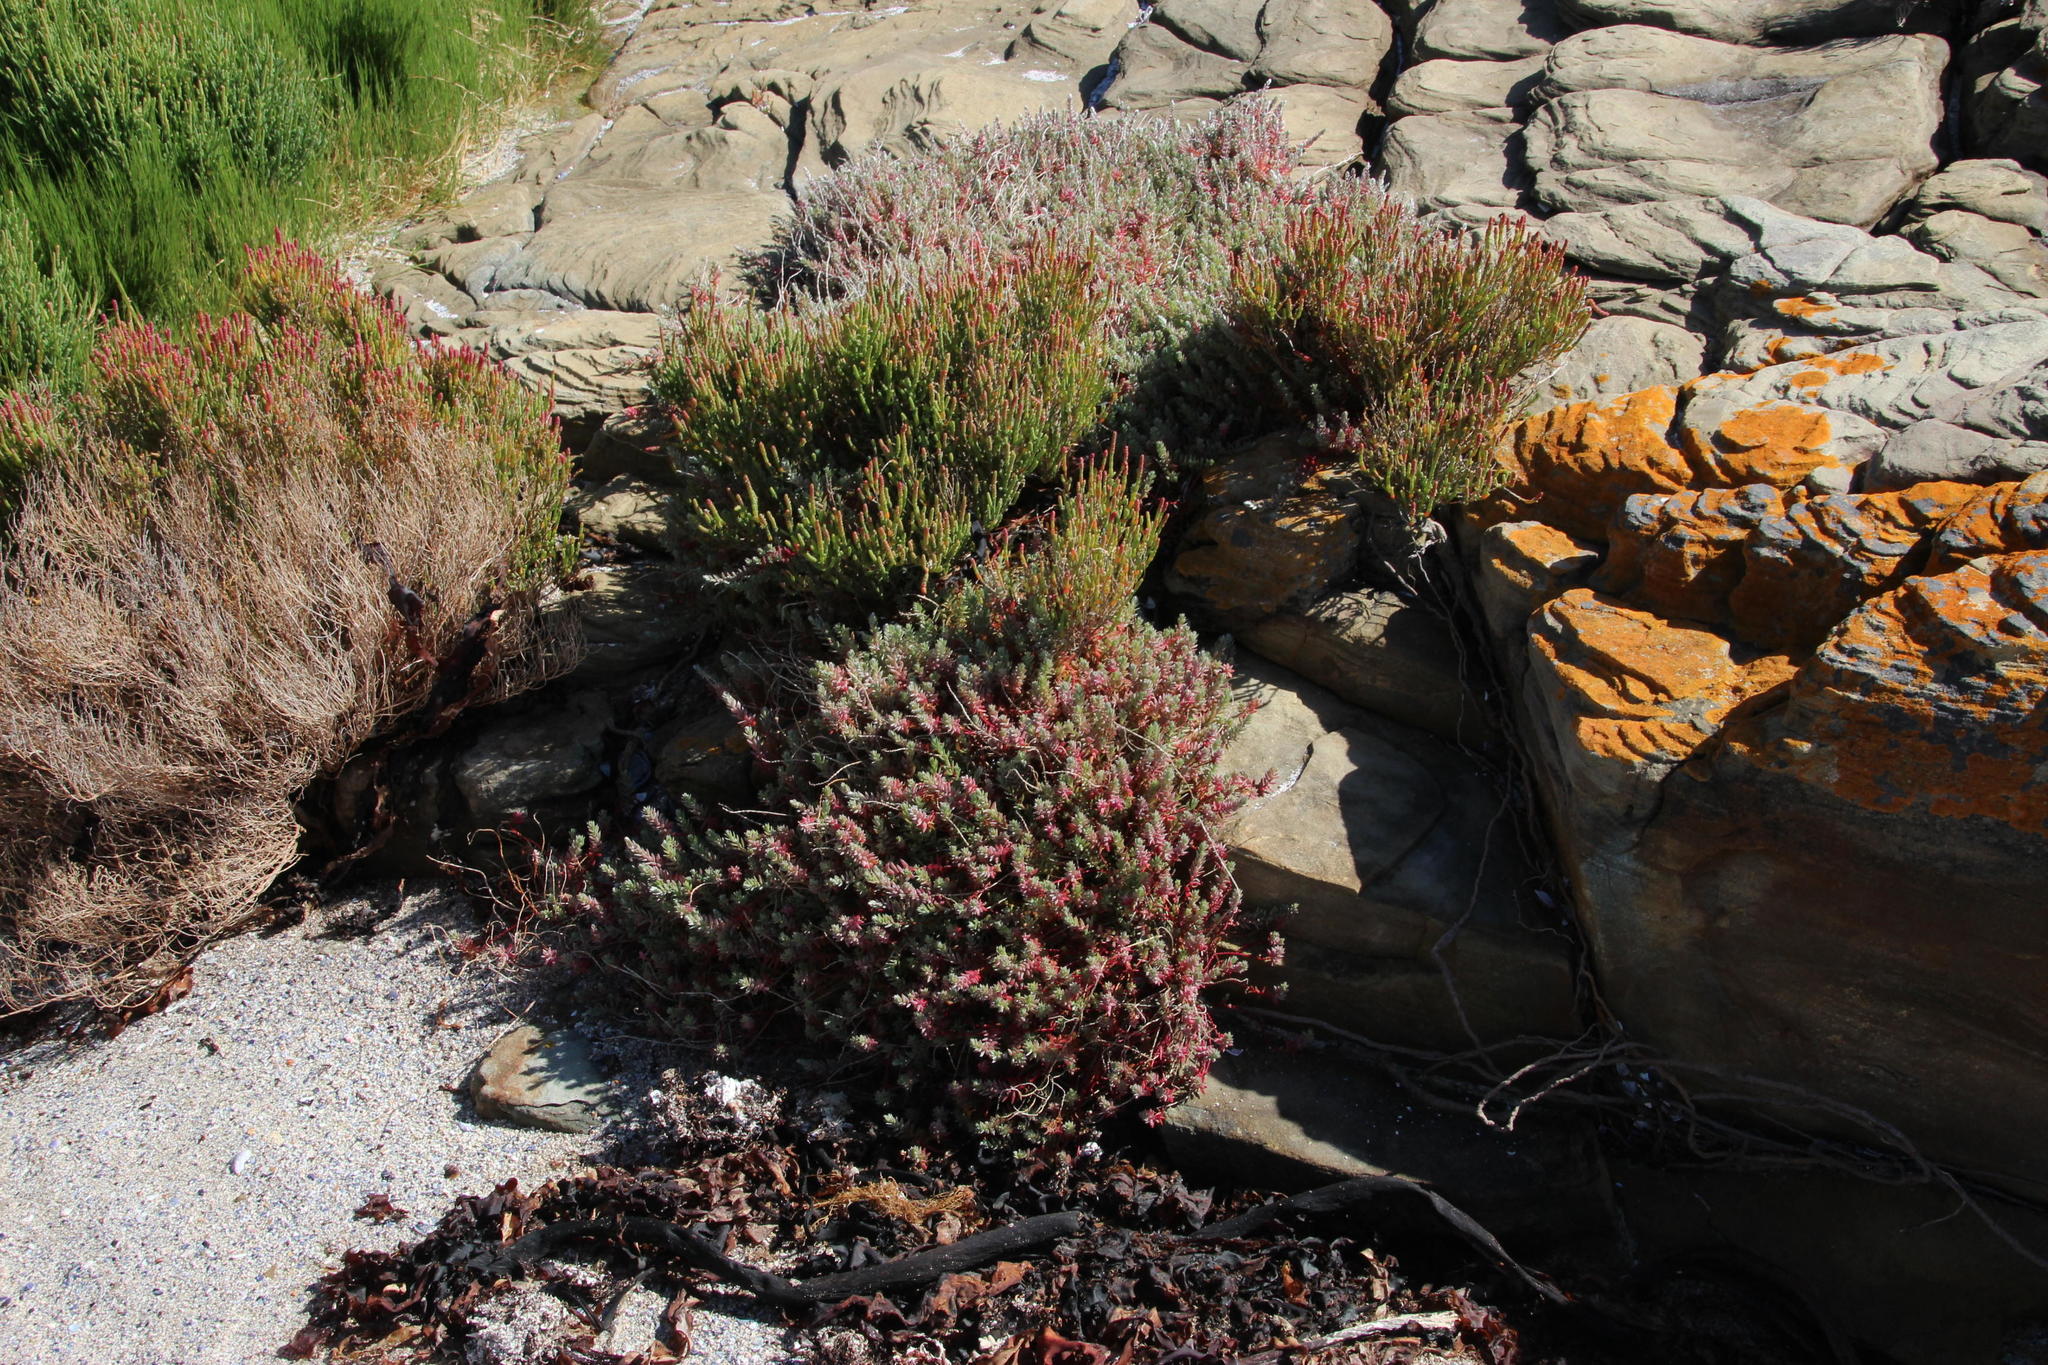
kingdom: Plantae
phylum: Tracheophyta
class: Magnoliopsida
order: Caryophyllales
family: Amaranthaceae
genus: Chenolea
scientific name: Chenolea diffusa
